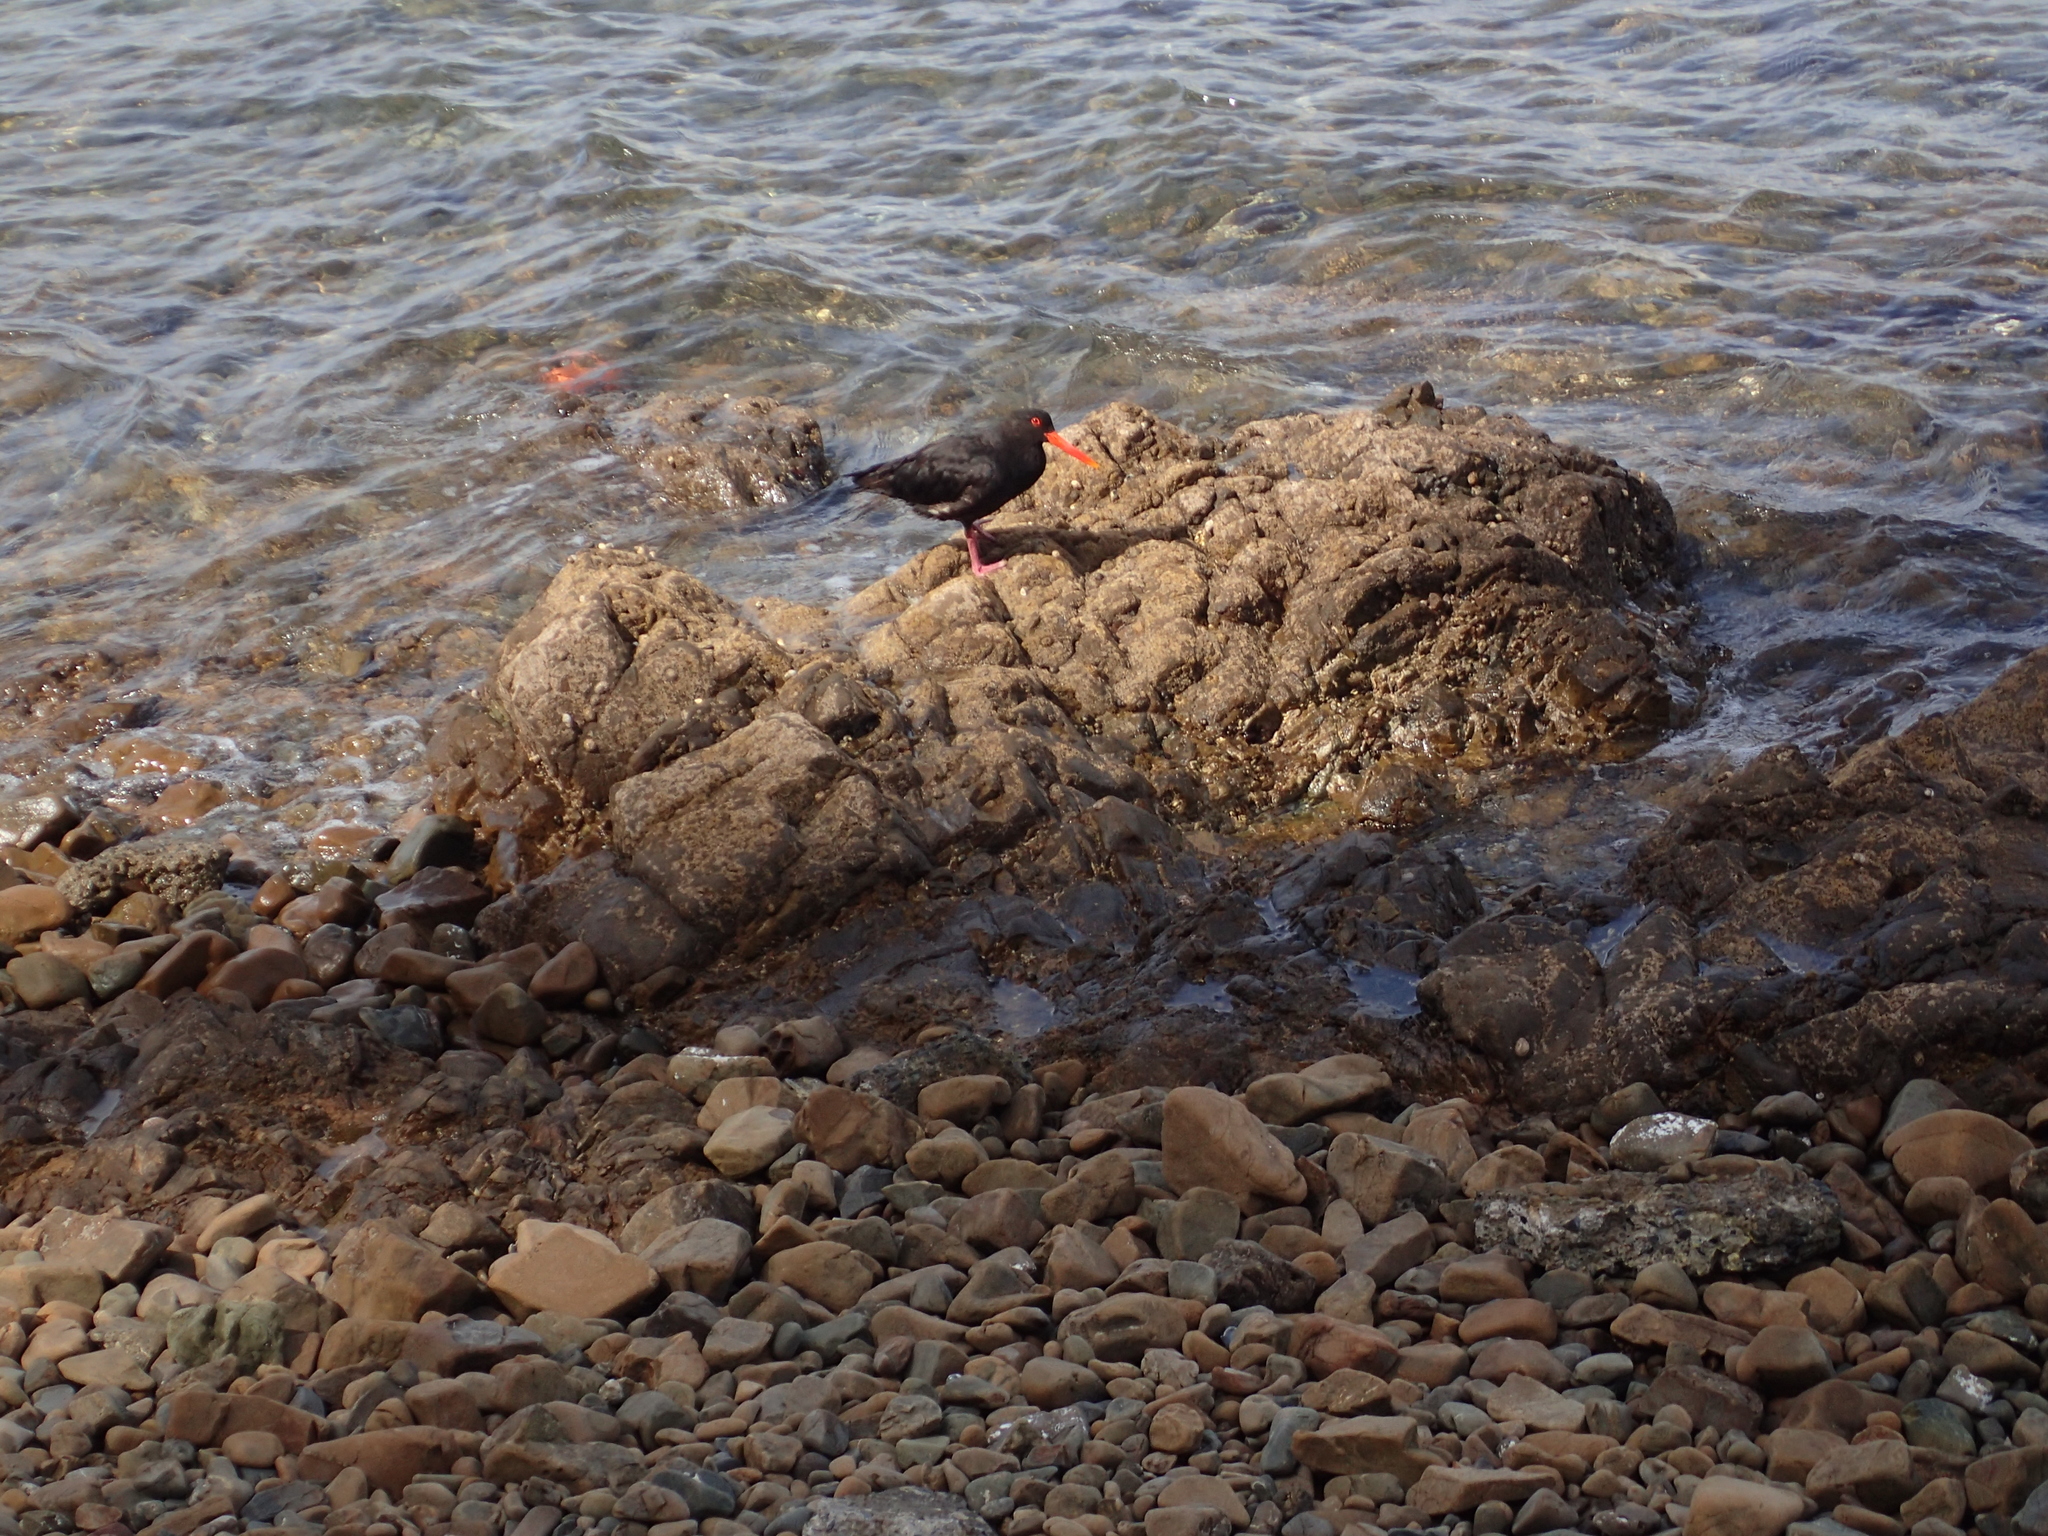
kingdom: Animalia
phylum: Chordata
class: Aves
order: Charadriiformes
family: Haematopodidae
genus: Haematopus
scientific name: Haematopus unicolor
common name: Variable oystercatcher
